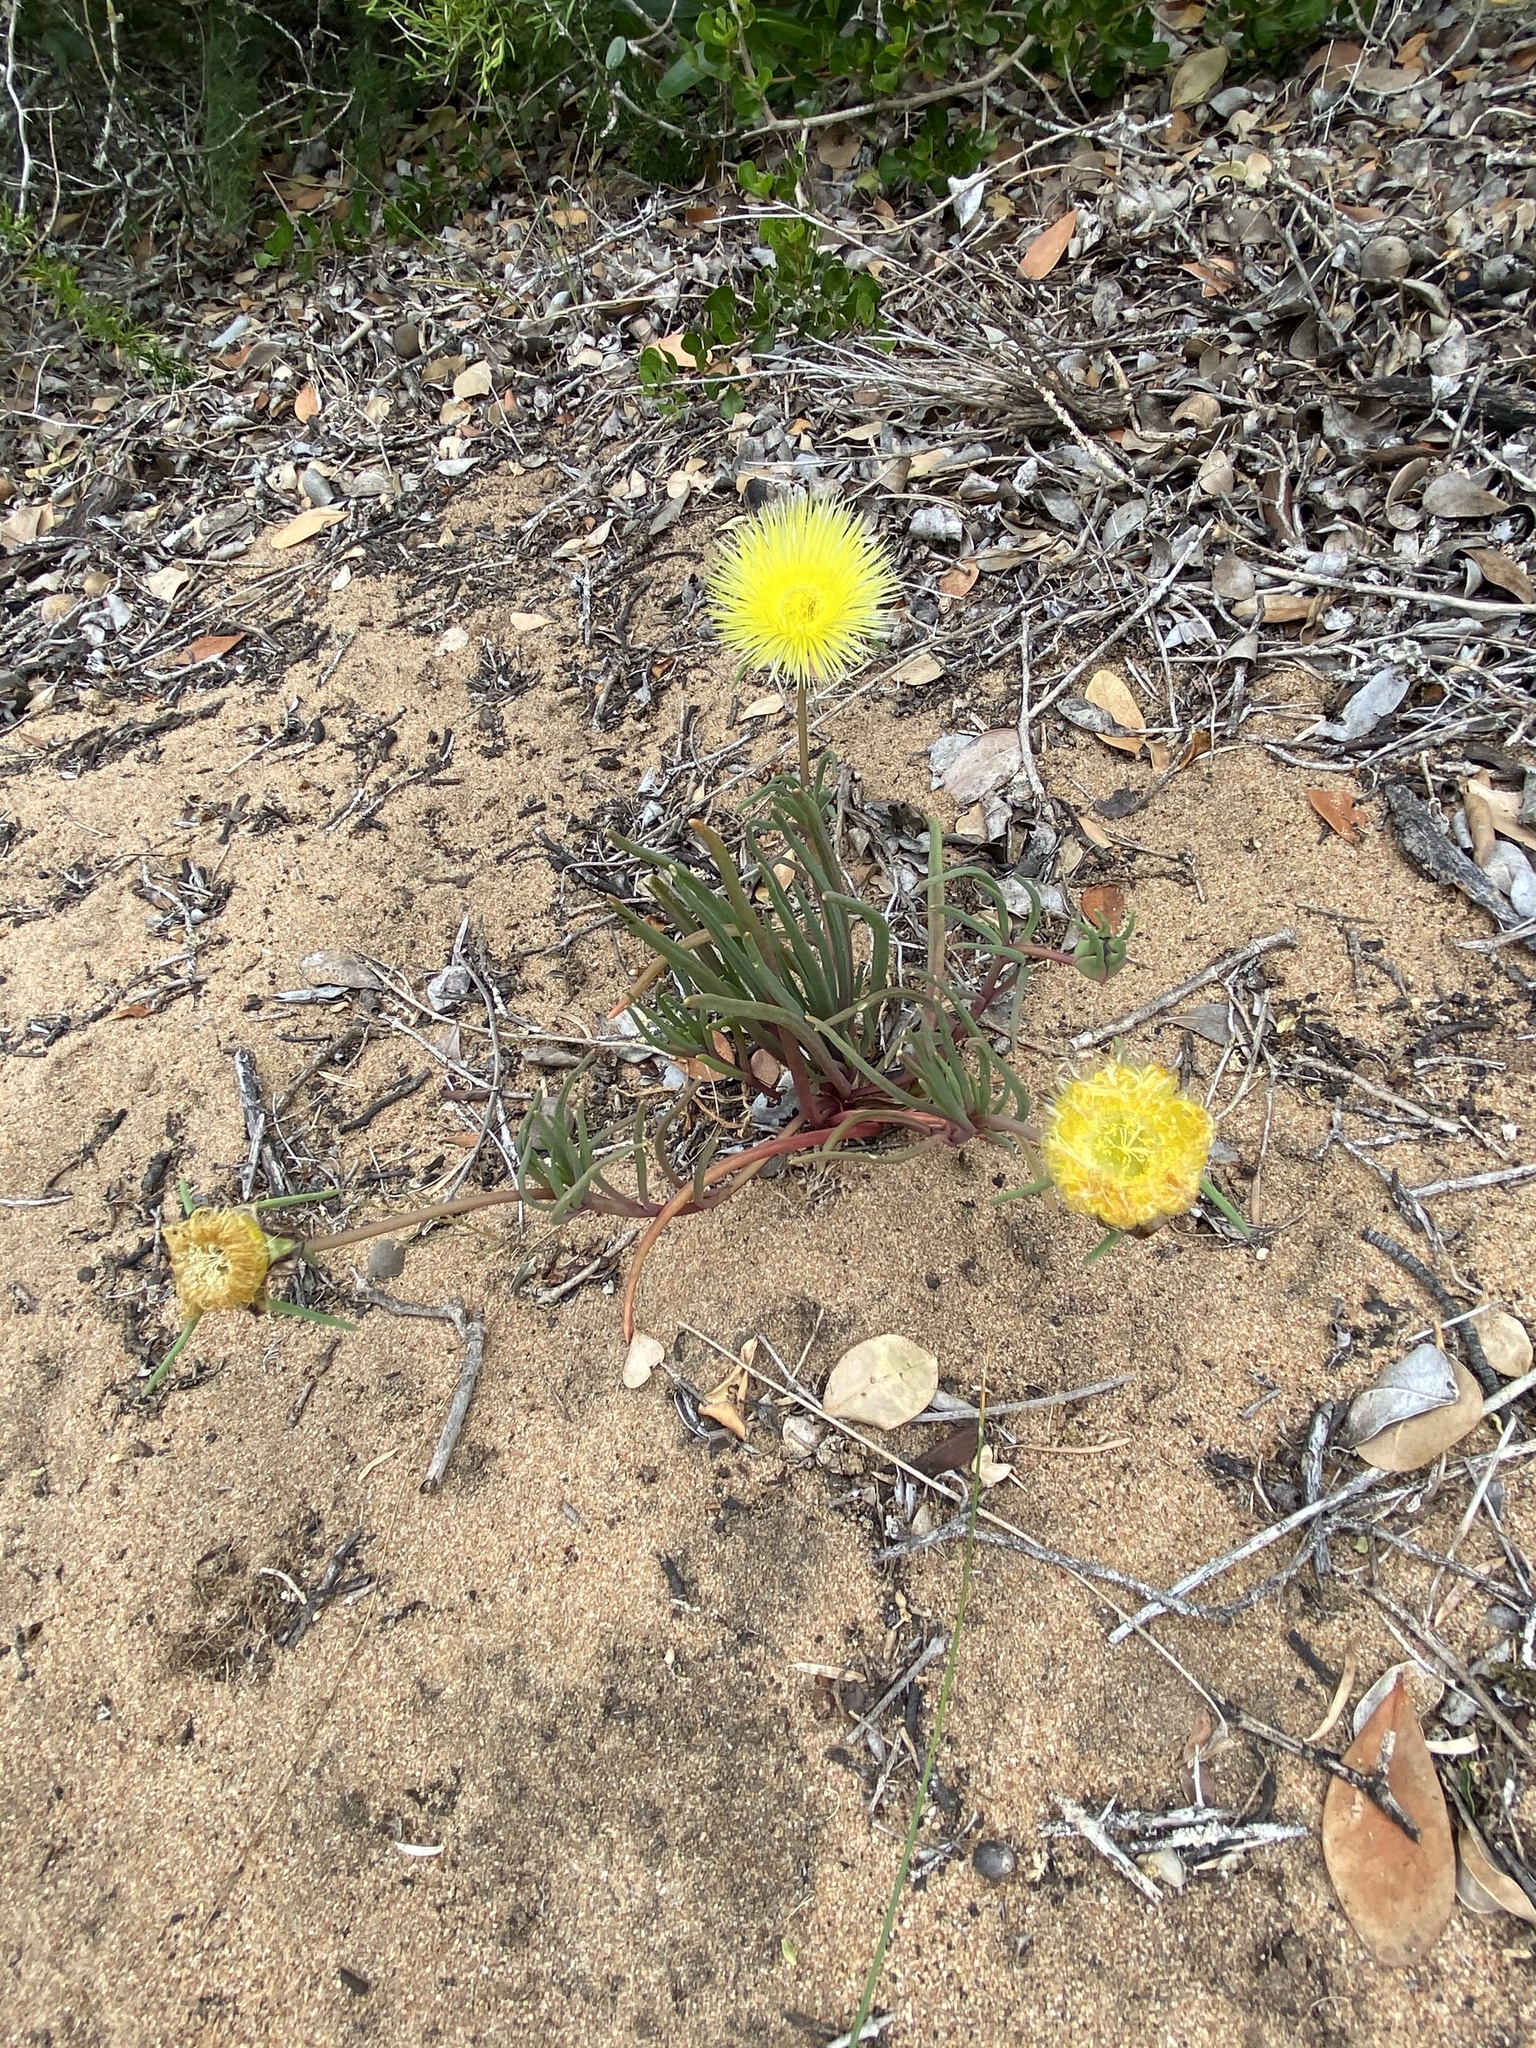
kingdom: Plantae
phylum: Tracheophyta
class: Magnoliopsida
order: Caryophyllales
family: Aizoaceae
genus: Conicosia
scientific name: Conicosia pugioniformis
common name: Narrow-leaved iceplant
